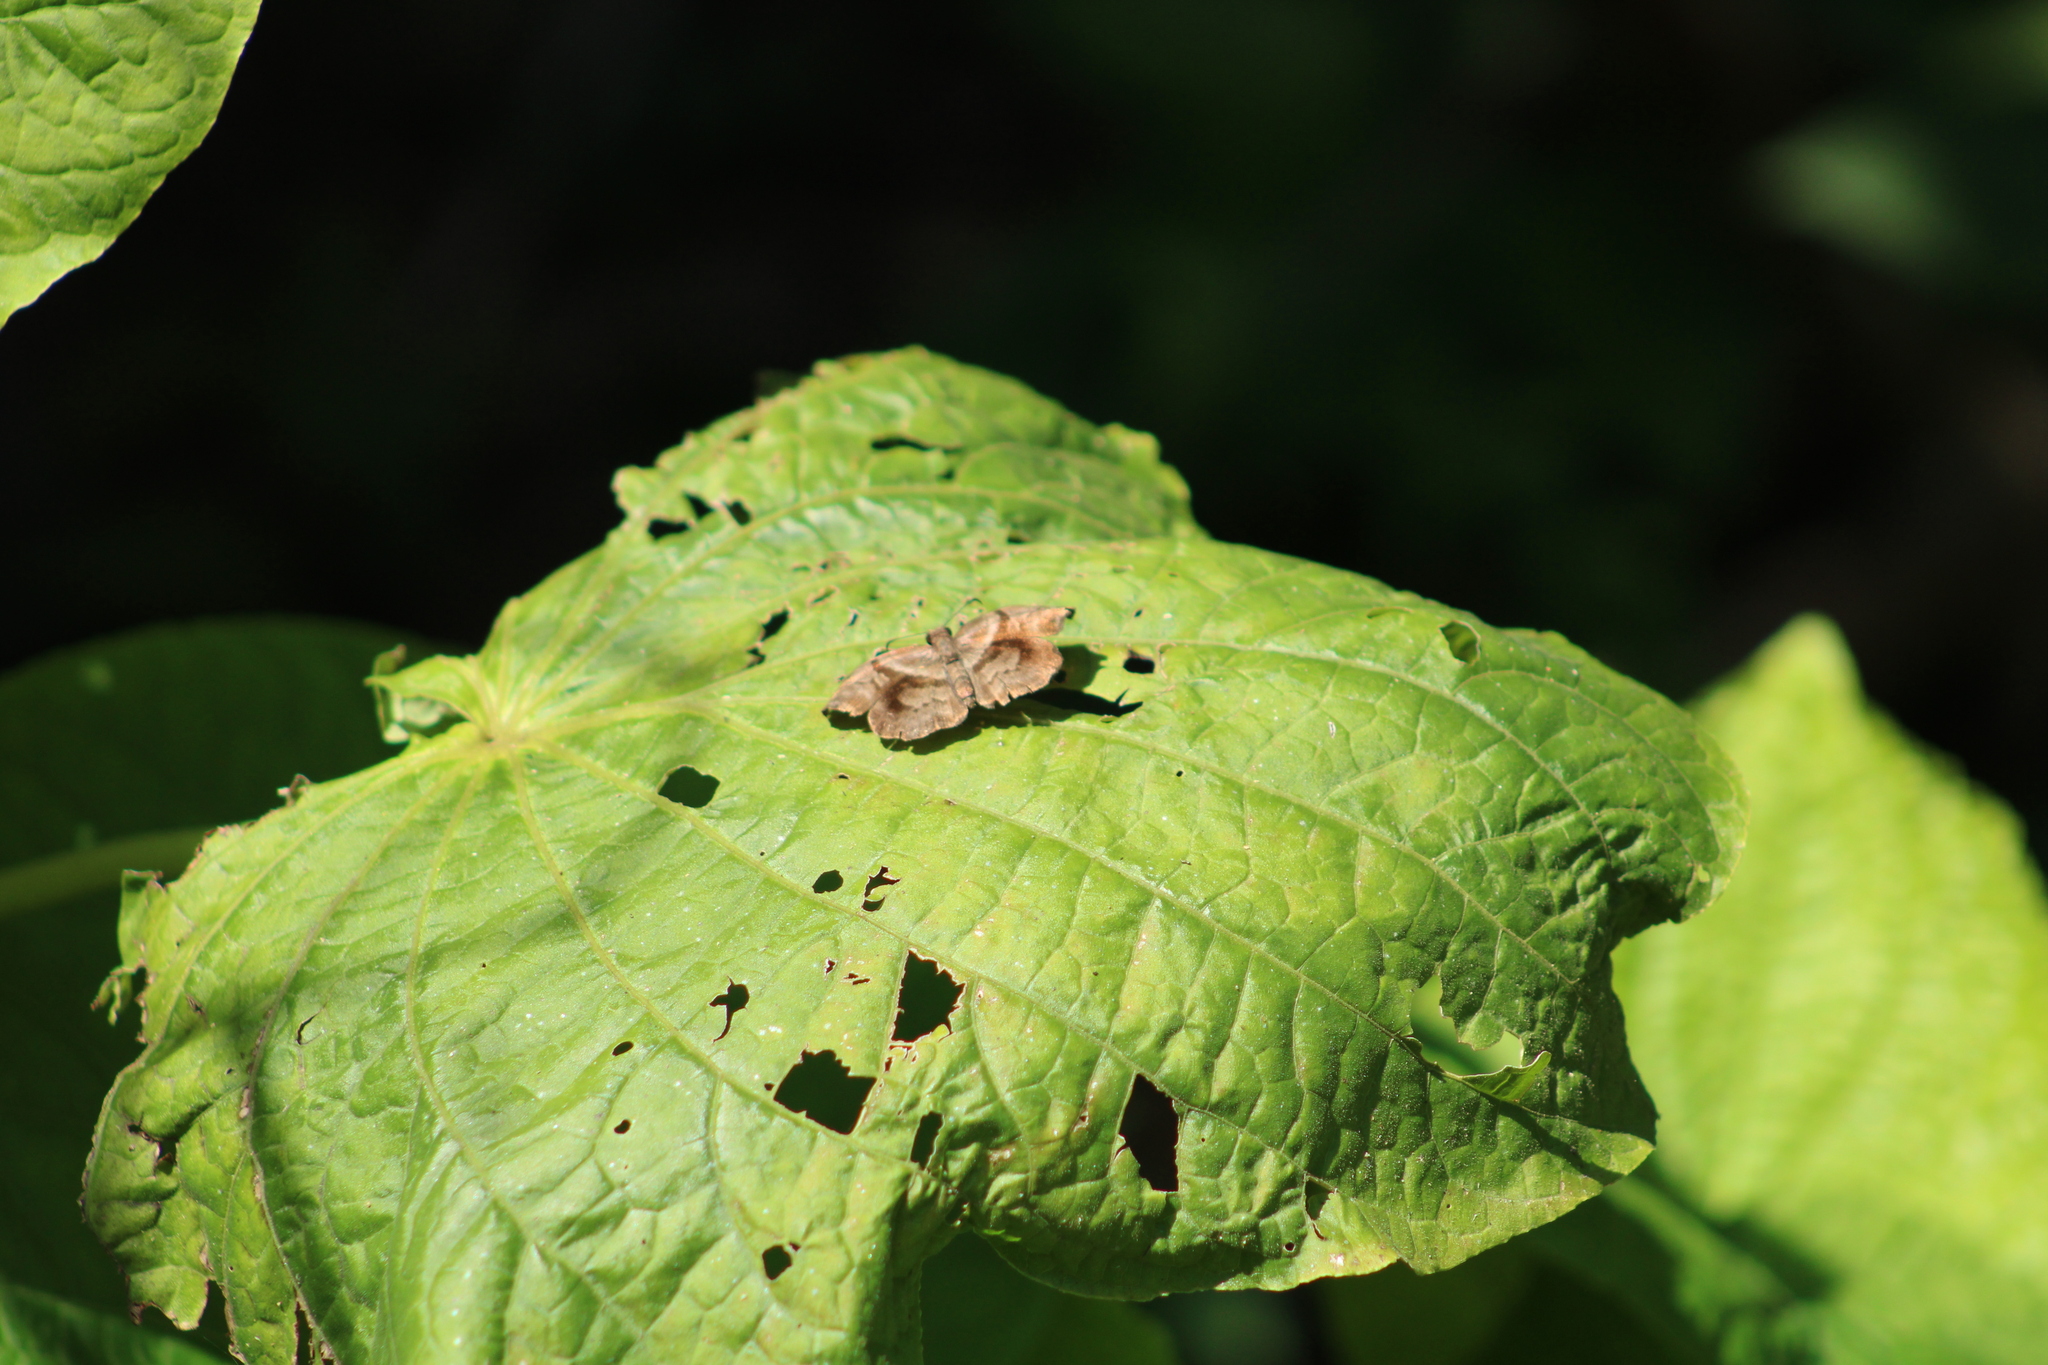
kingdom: Animalia
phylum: Arthropoda
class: Insecta
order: Lepidoptera
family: Hesperiidae
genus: Helias
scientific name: Helias phalaenoides
